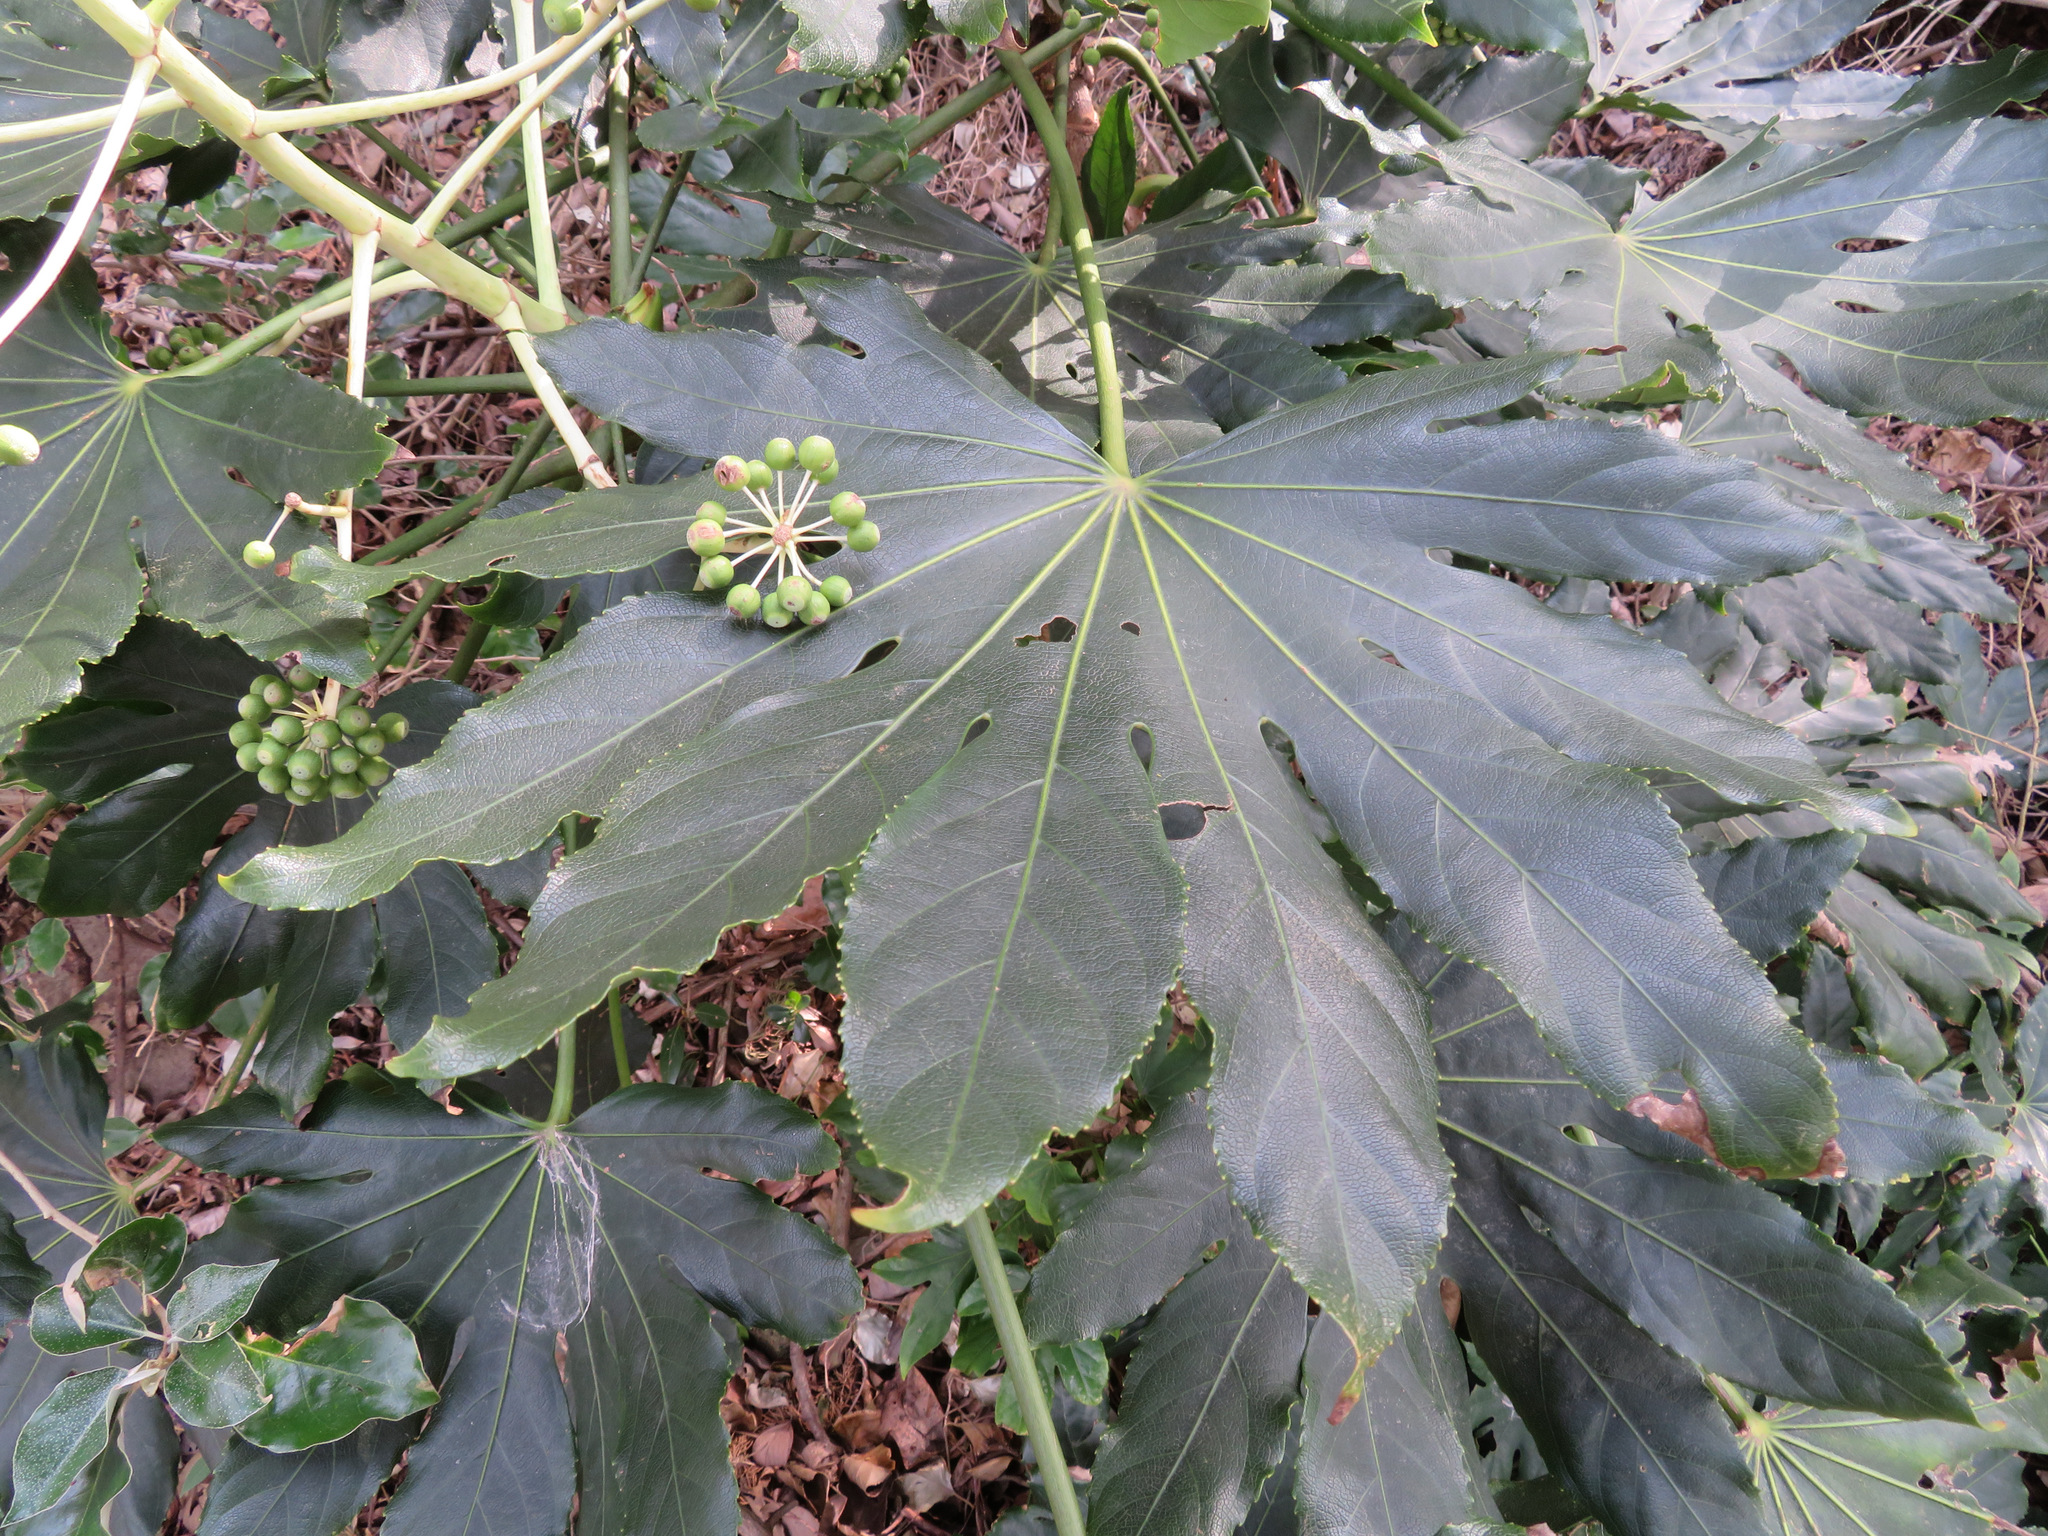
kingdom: Plantae
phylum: Tracheophyta
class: Magnoliopsida
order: Apiales
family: Araliaceae
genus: Fatsia
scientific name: Fatsia japonica
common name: Fatsia
